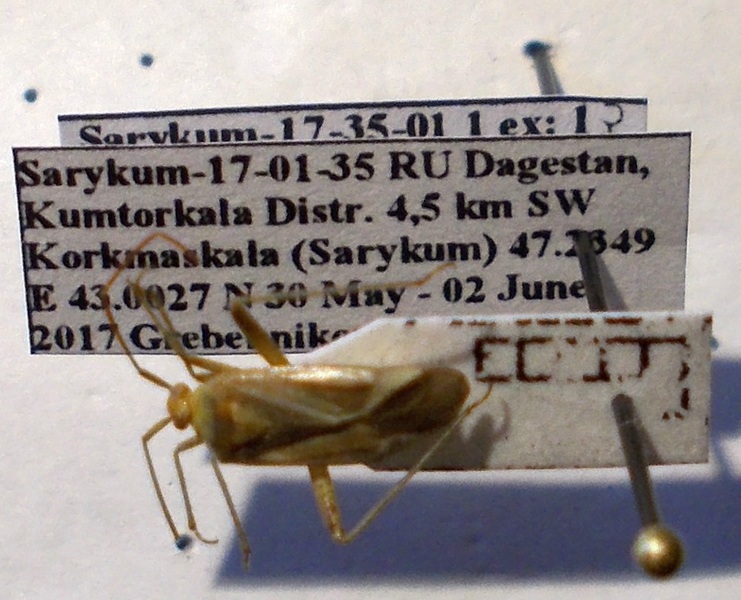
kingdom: Animalia
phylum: Arthropoda
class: Insecta
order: Hemiptera
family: Miridae
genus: Adelphocoris
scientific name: Adelphocoris lineolatus
